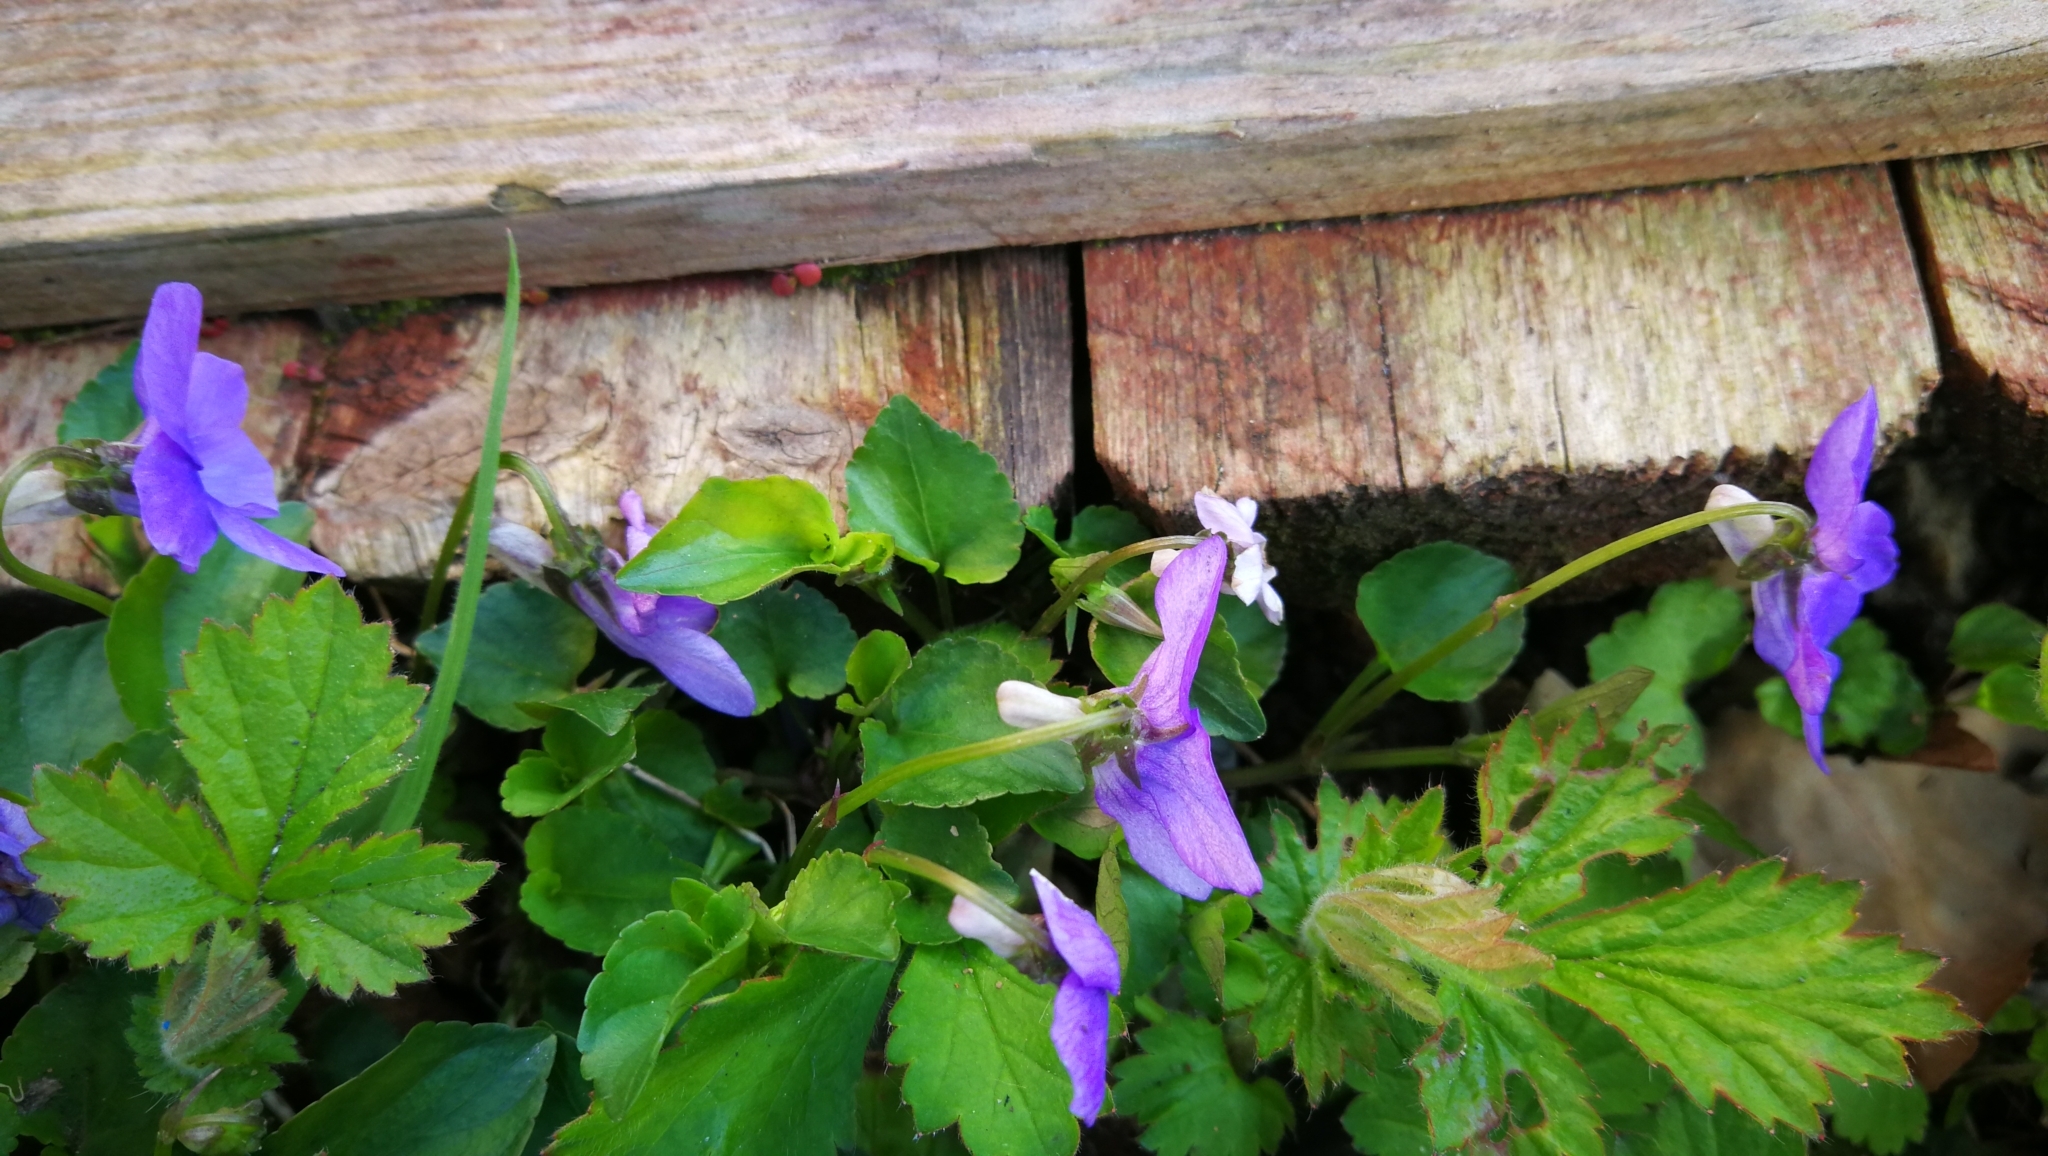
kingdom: Plantae
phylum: Tracheophyta
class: Magnoliopsida
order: Malpighiales
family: Violaceae
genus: Viola
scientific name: Viola riviniana
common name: Common dog-violet
